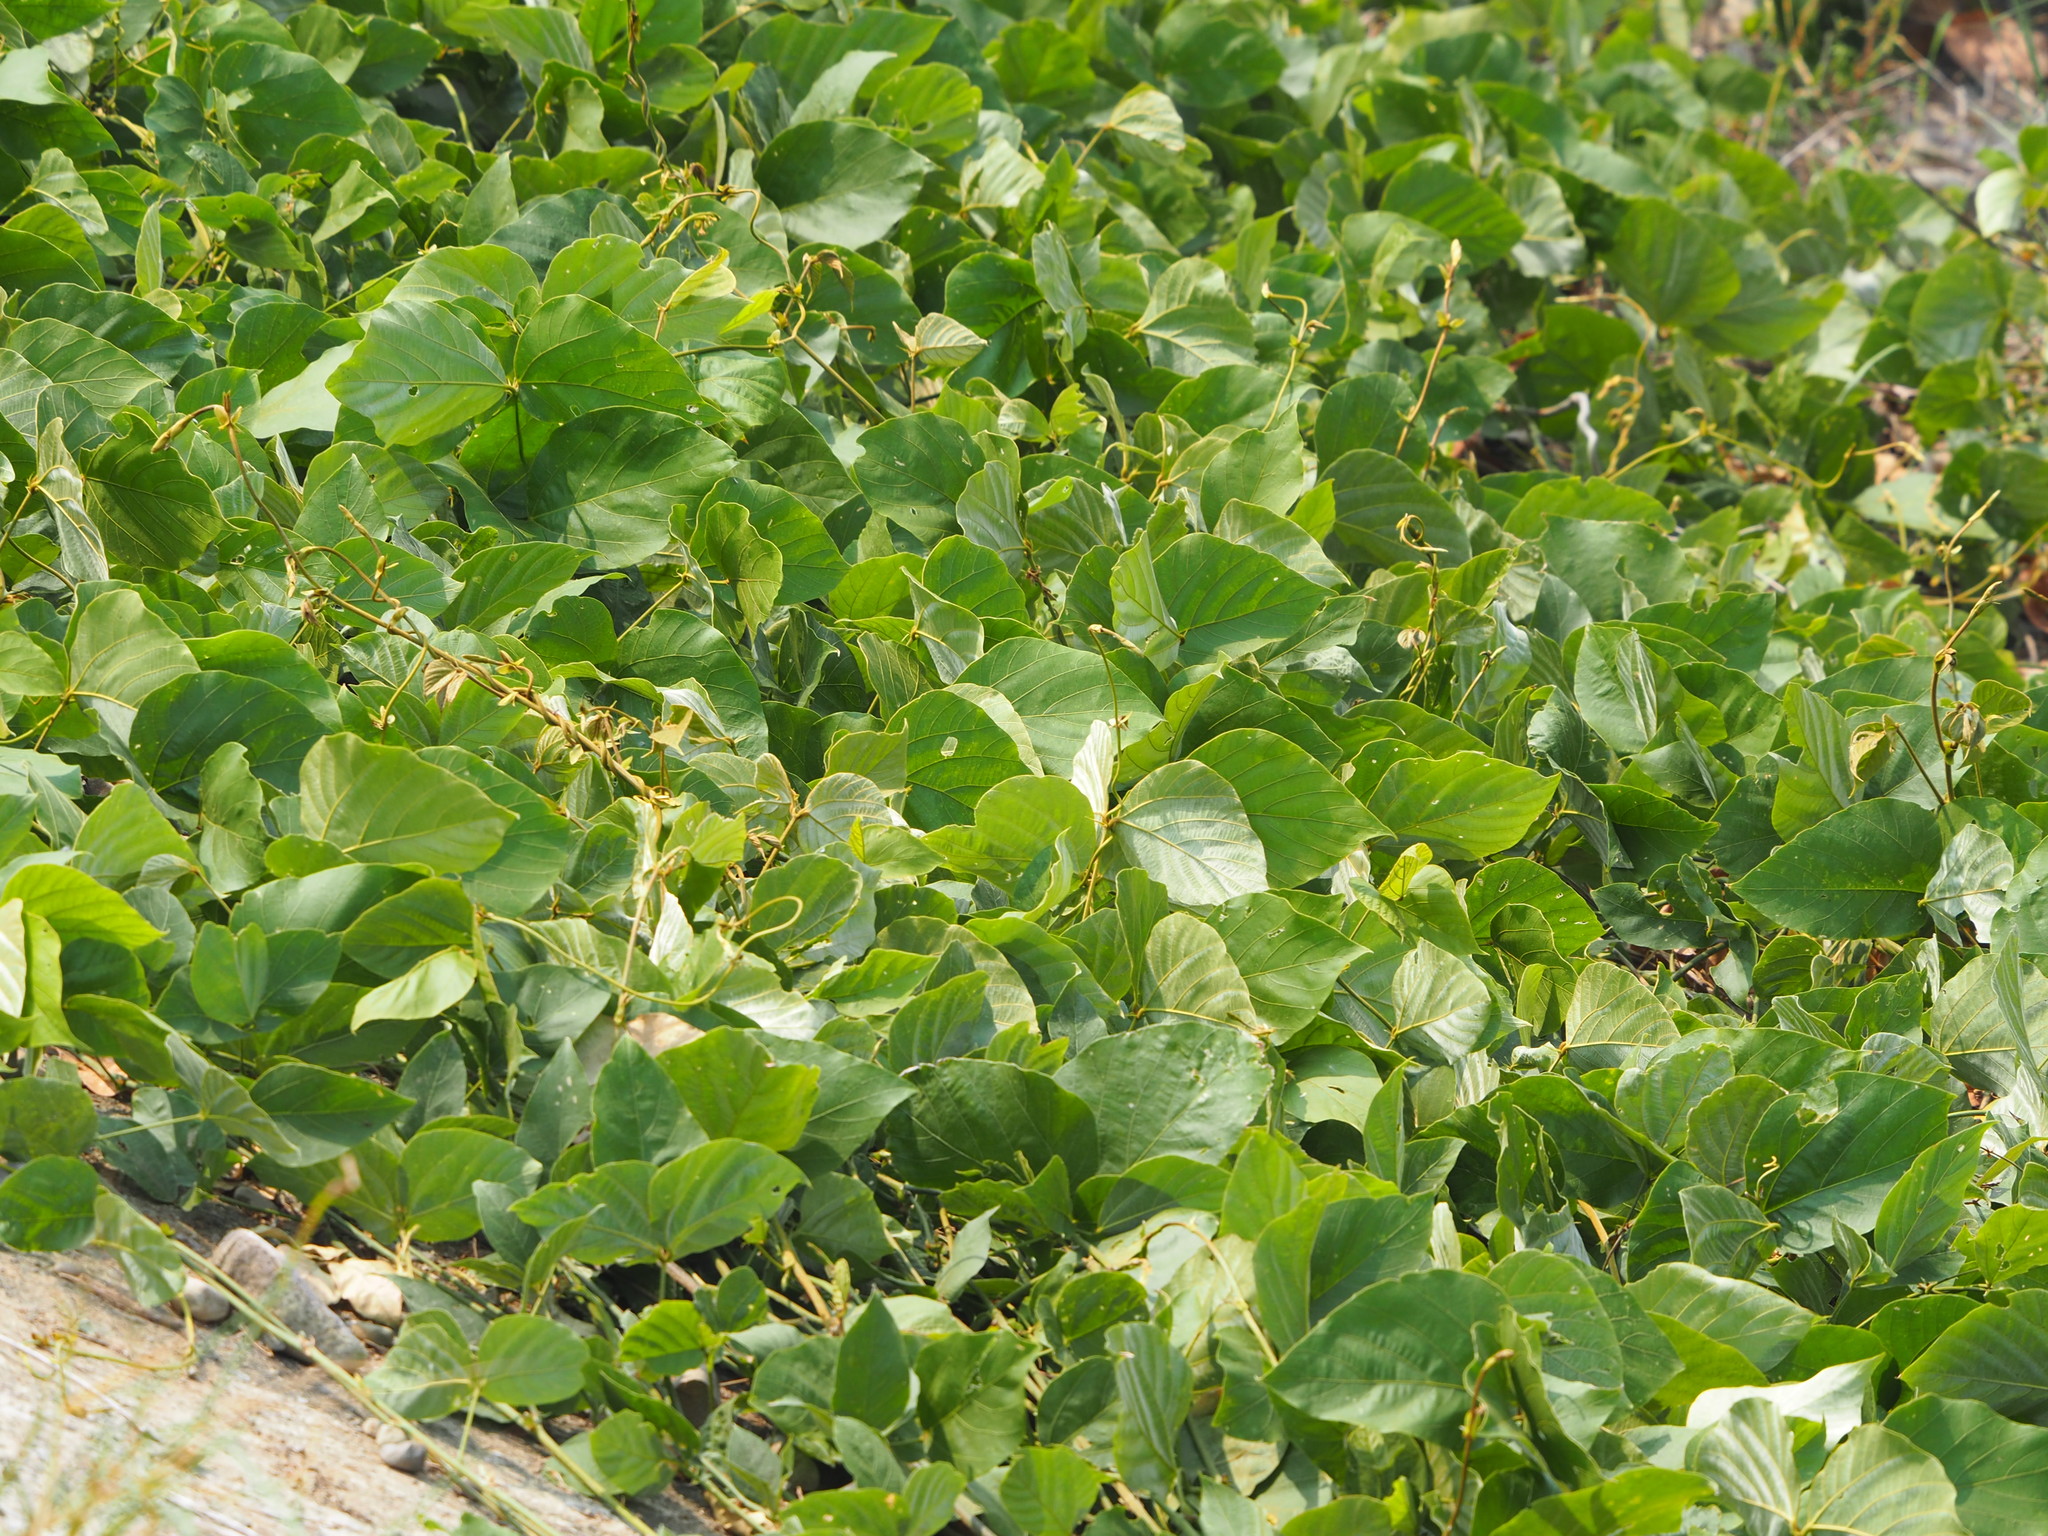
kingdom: Plantae
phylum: Tracheophyta
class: Magnoliopsida
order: Fabales
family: Fabaceae
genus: Pueraria
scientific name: Pueraria montana
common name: Kudzu
